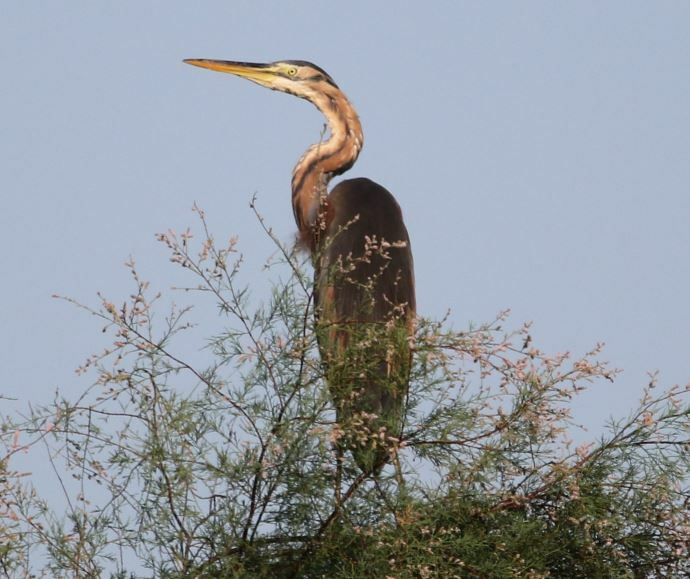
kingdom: Animalia
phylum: Chordata
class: Aves
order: Pelecaniformes
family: Ardeidae
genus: Ardea
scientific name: Ardea purpurea
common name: Purple heron
